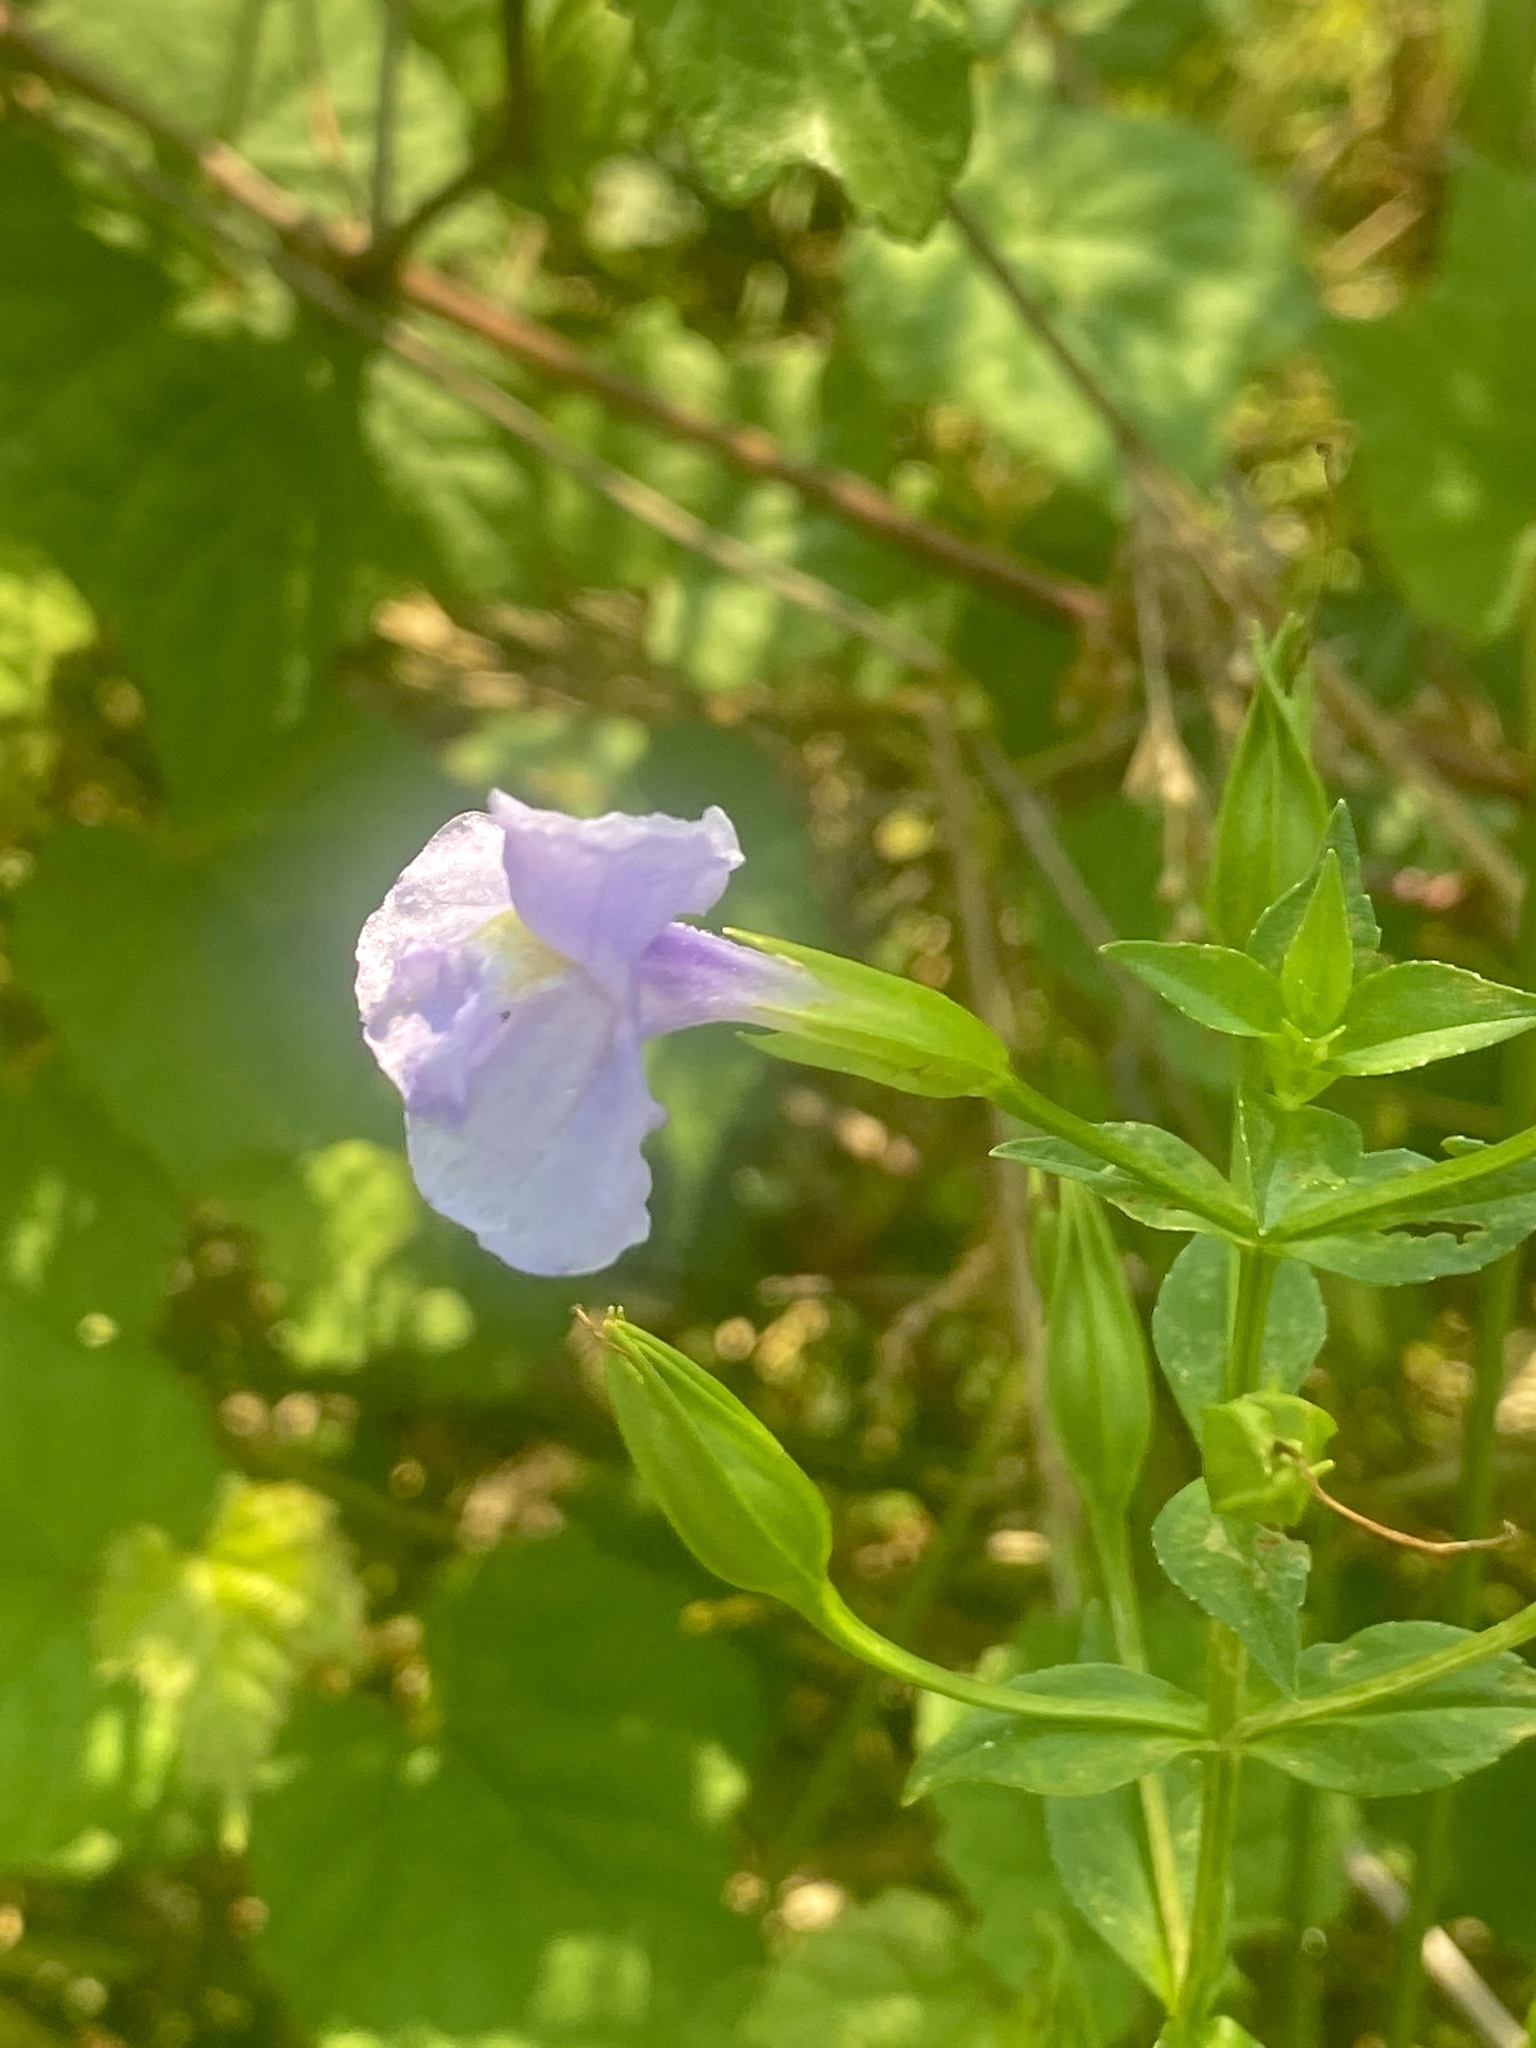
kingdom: Plantae
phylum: Tracheophyta
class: Magnoliopsida
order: Lamiales
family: Phrymaceae
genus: Mimulus
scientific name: Mimulus ringens
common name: Allegheny monkeyflower
